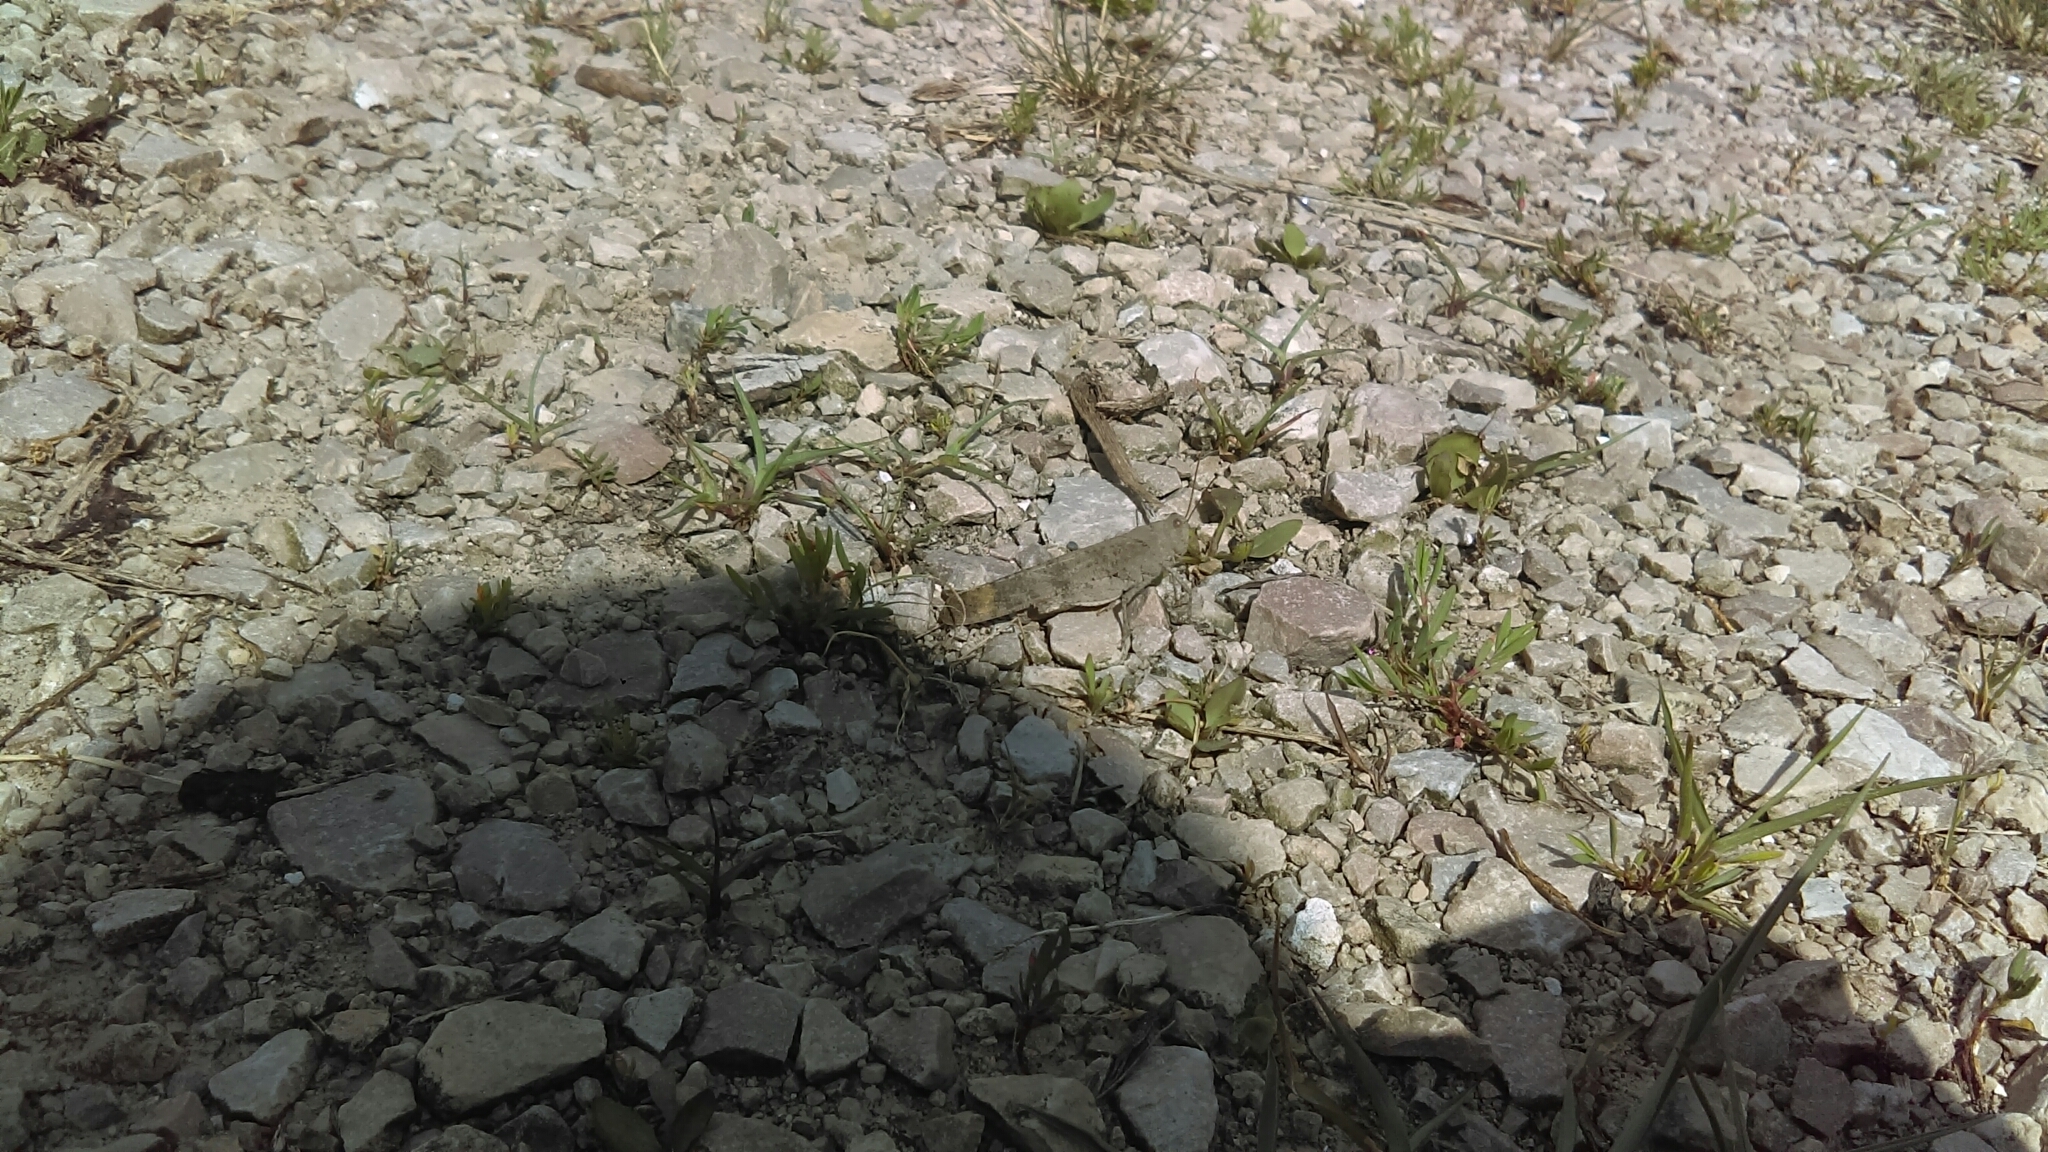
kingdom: Animalia
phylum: Arthropoda
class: Insecta
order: Orthoptera
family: Acrididae
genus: Dissosteira
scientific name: Dissosteira carolina
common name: Carolina grasshopper
